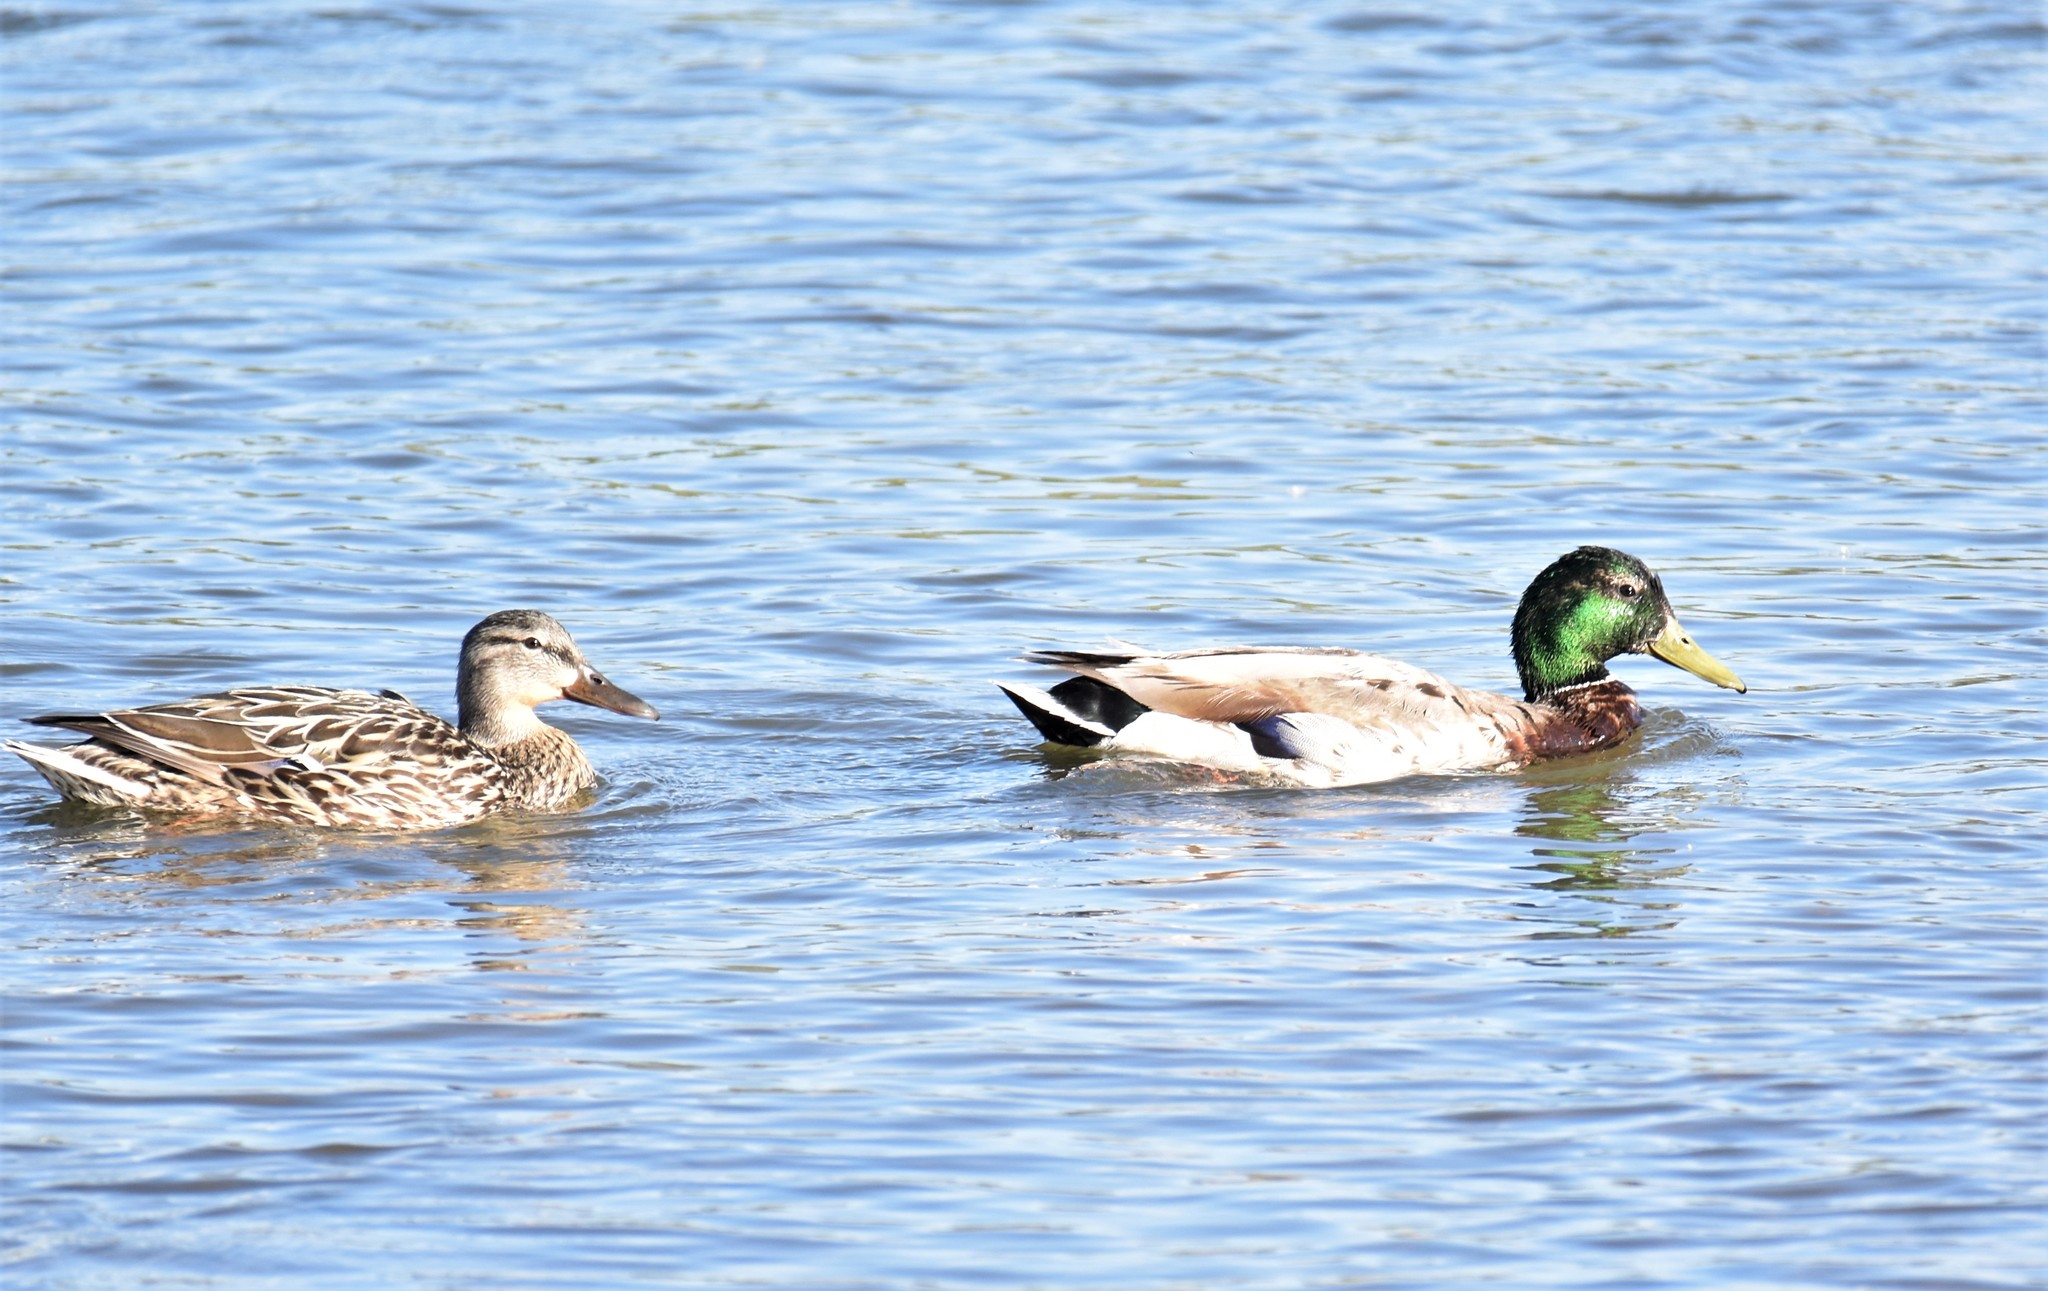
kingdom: Animalia
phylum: Chordata
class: Aves
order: Anseriformes
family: Anatidae
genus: Anas
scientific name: Anas platyrhynchos
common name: Mallard
